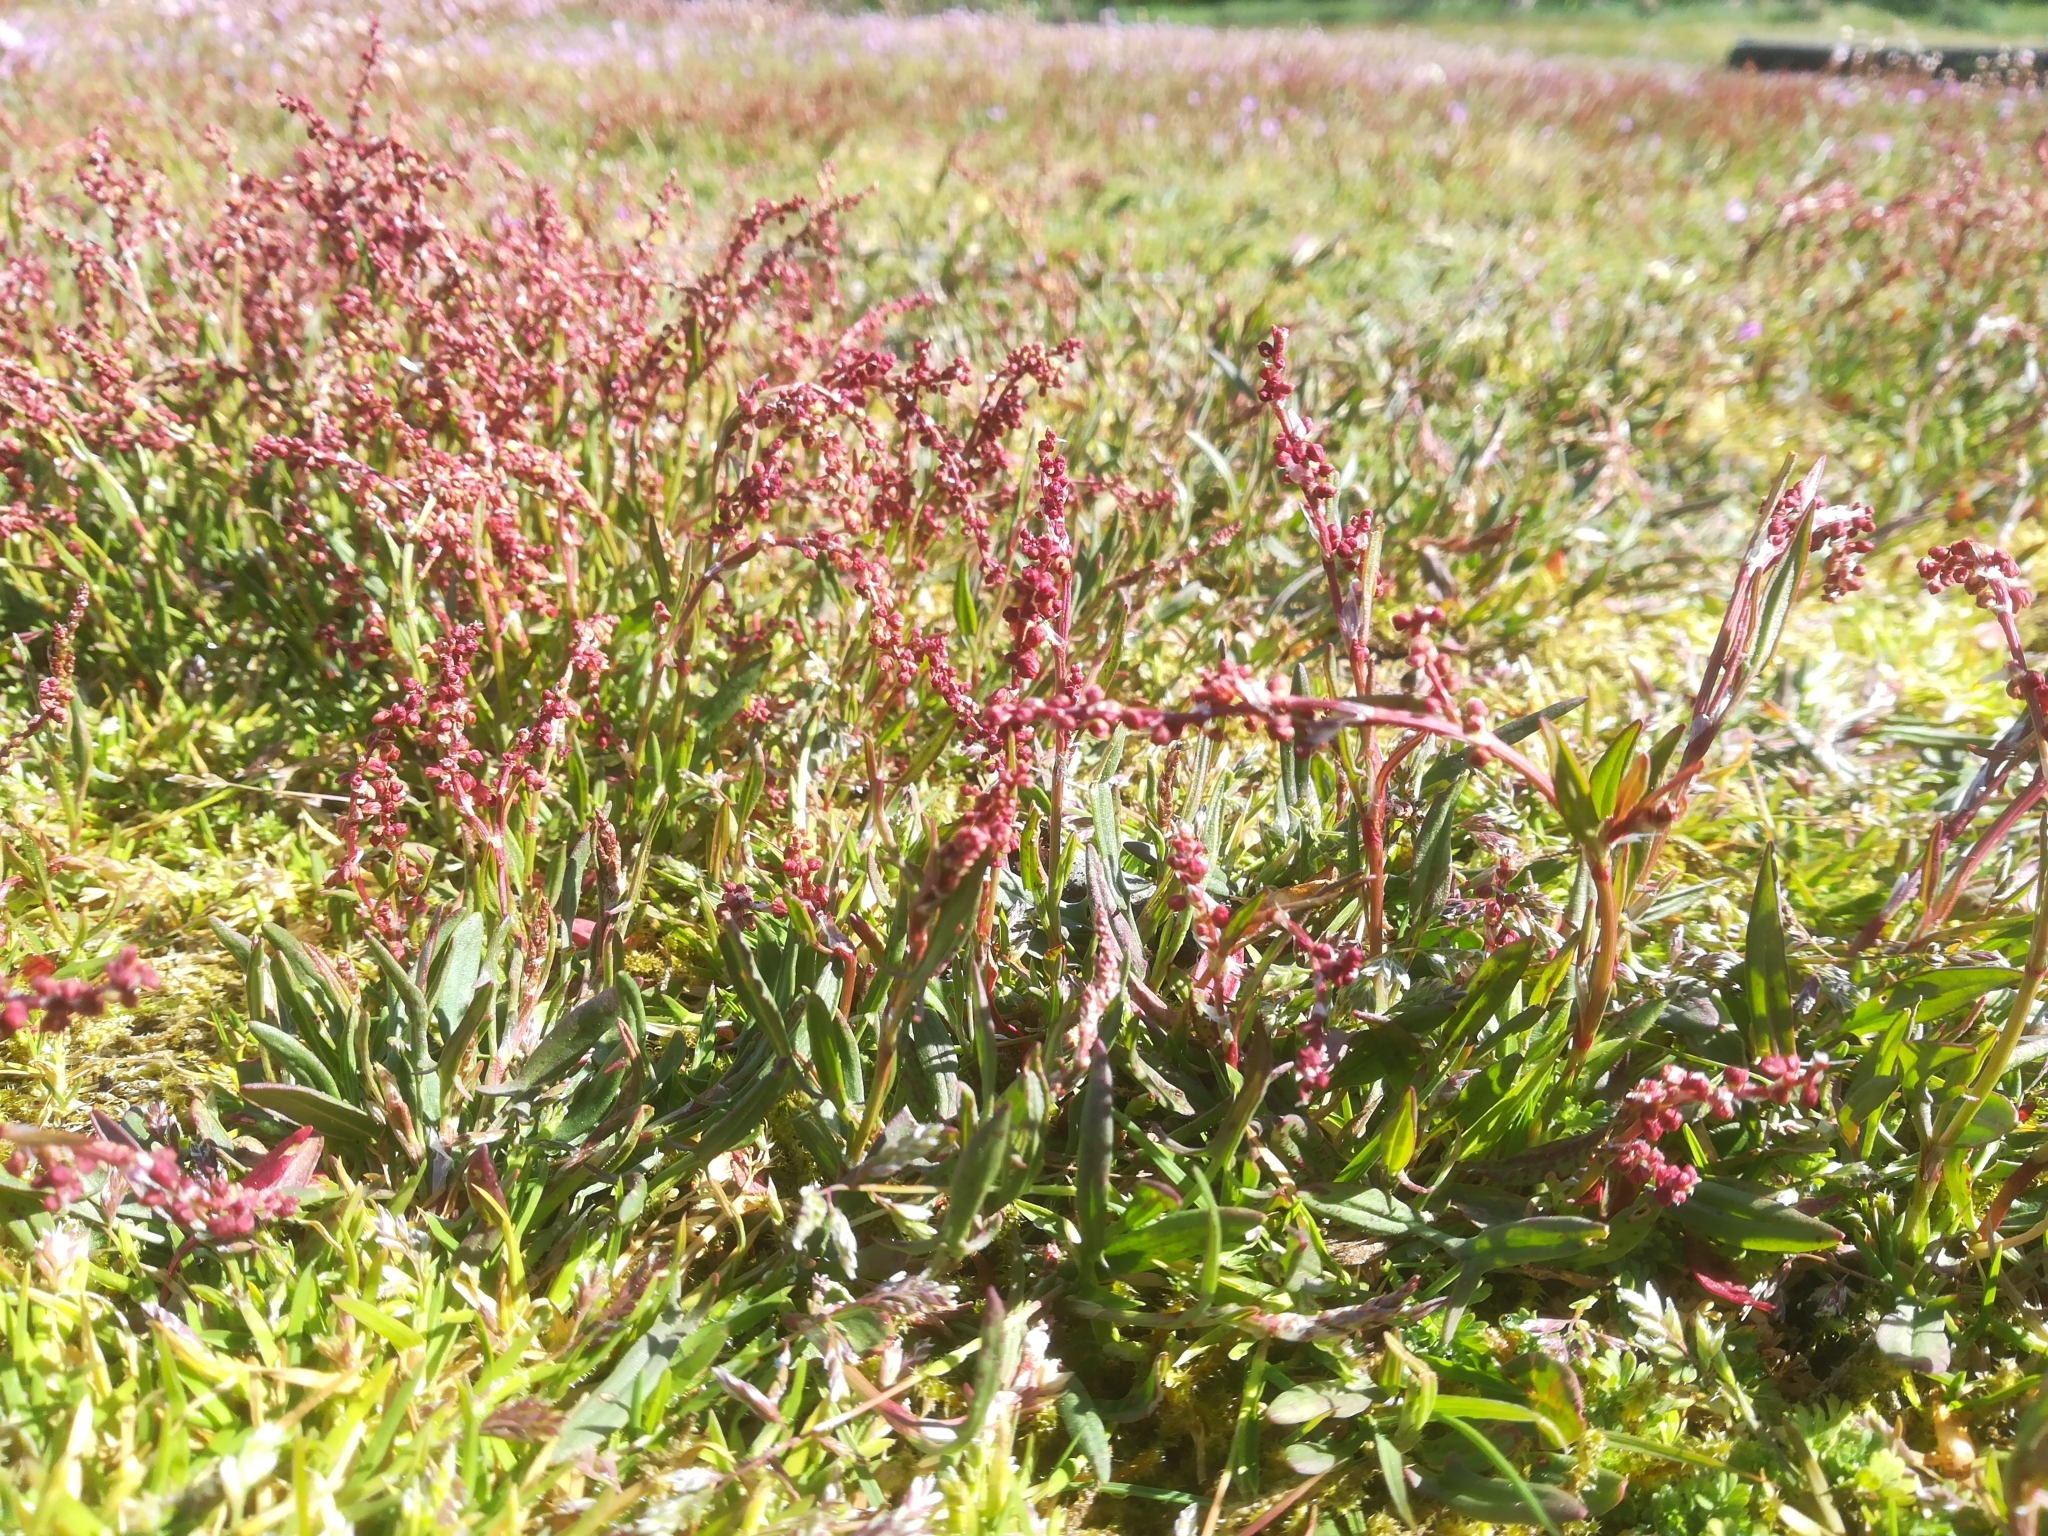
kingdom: Plantae
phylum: Tracheophyta
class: Magnoliopsida
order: Caryophyllales
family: Polygonaceae
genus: Rumex
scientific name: Rumex acetosella
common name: Common sheep sorrel
